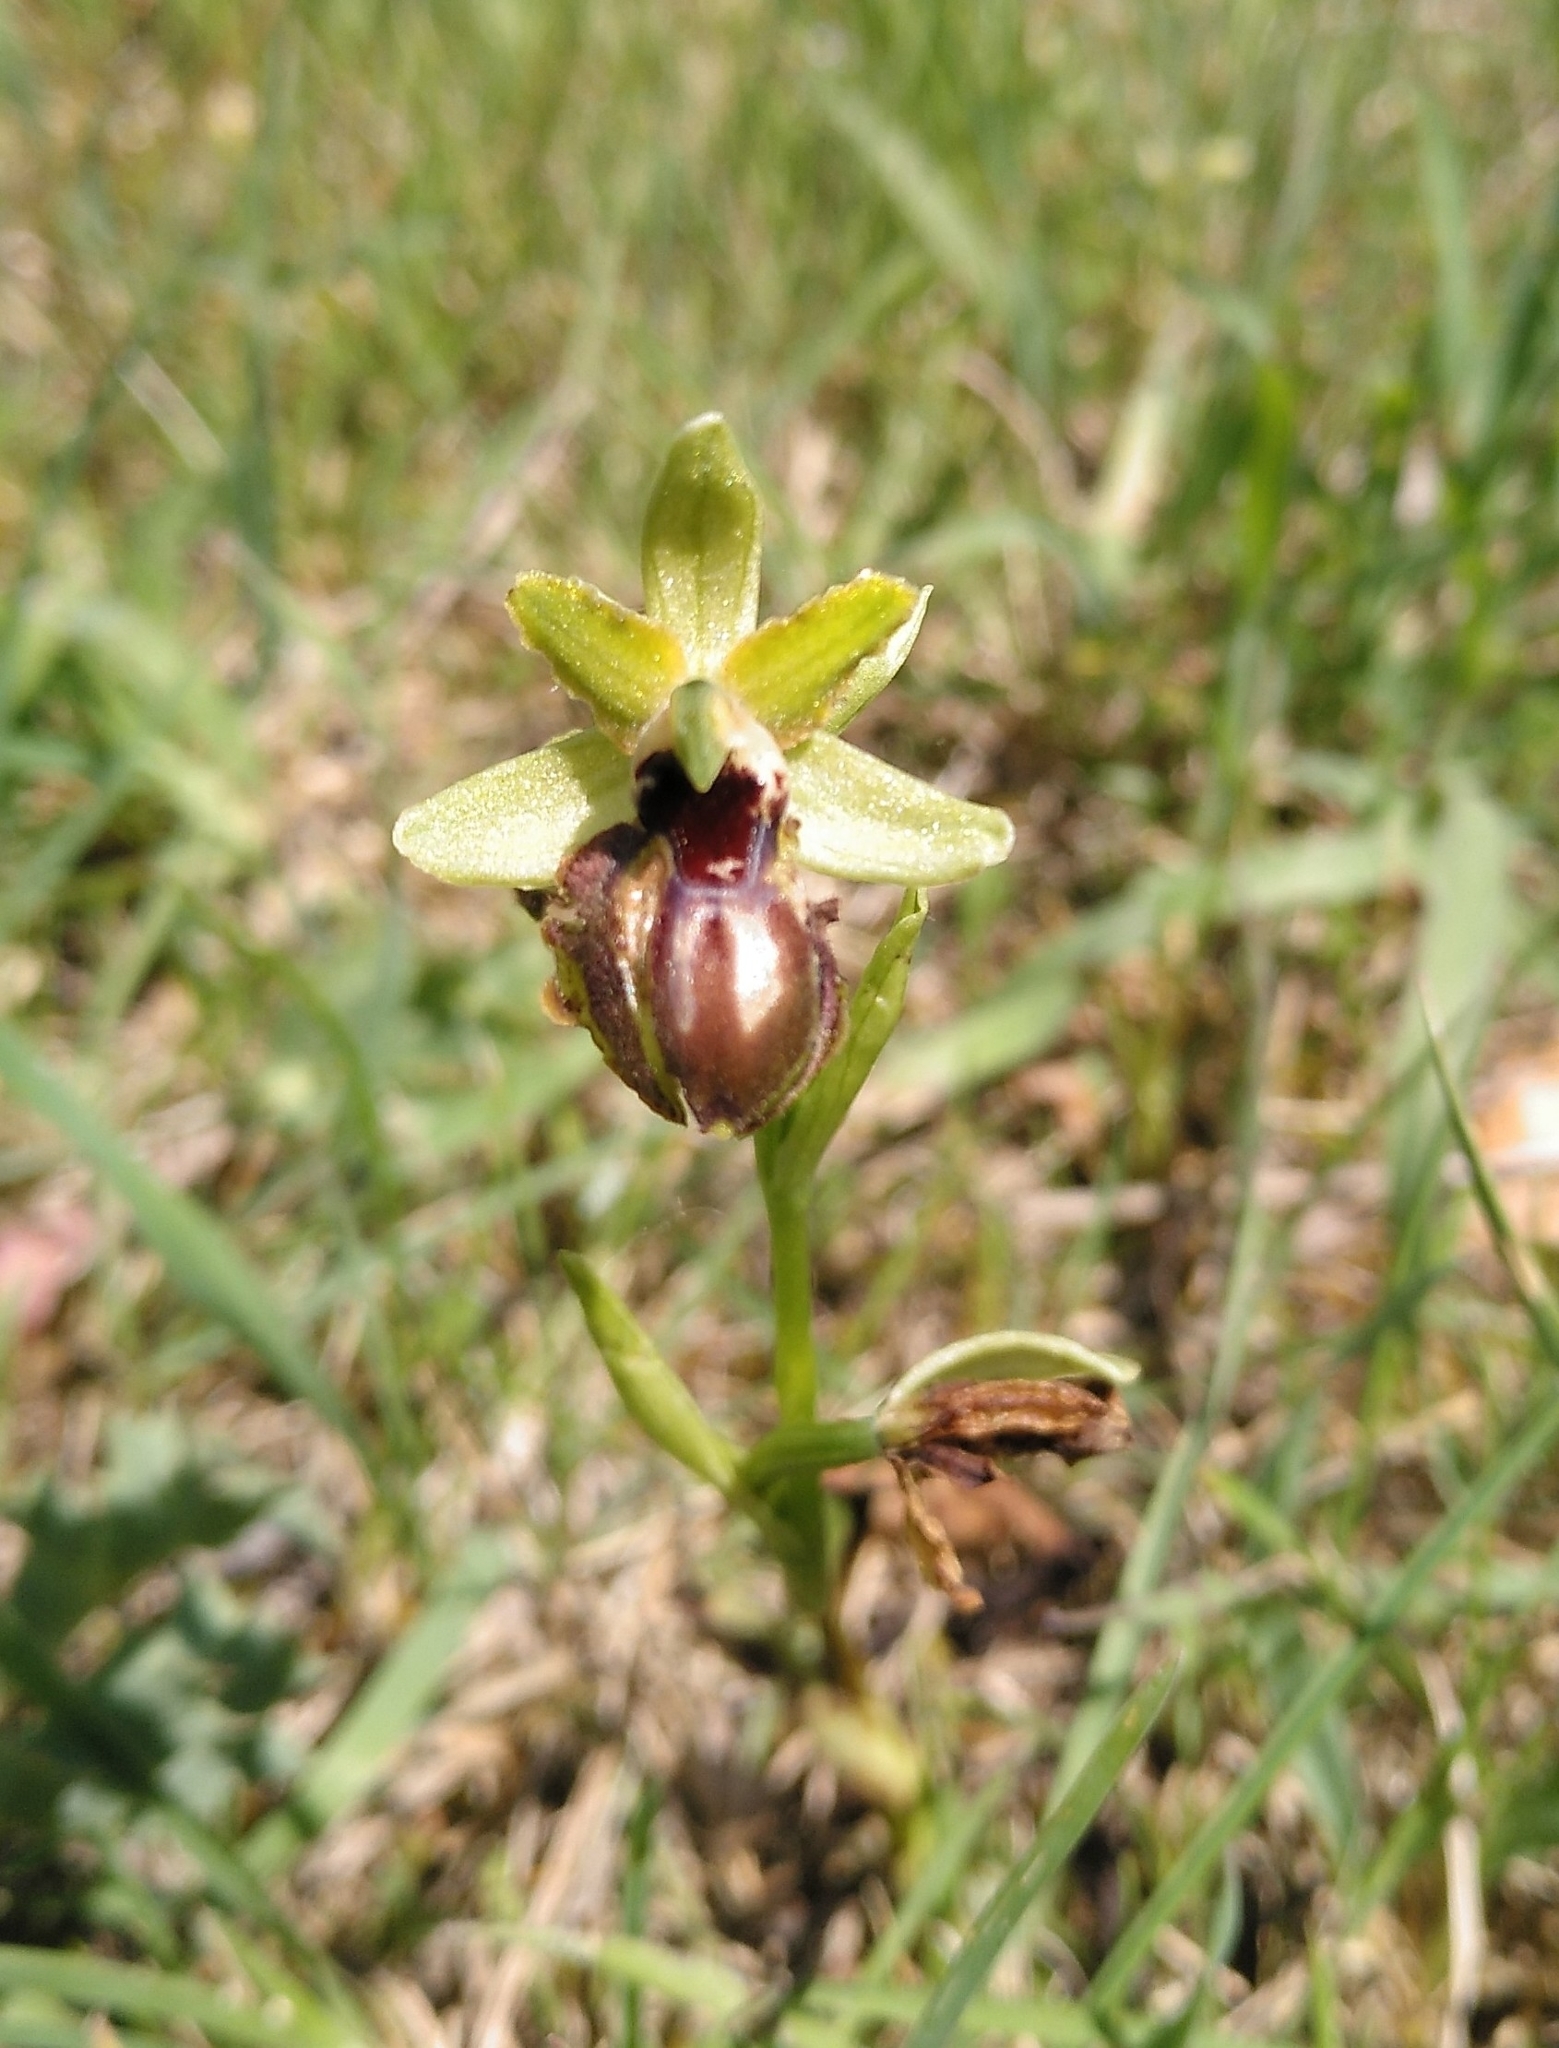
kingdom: Plantae
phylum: Tracheophyta
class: Liliopsida
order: Asparagales
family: Orchidaceae
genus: Ophrys
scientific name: Ophrys sphegodes
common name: Early spider-orchid
